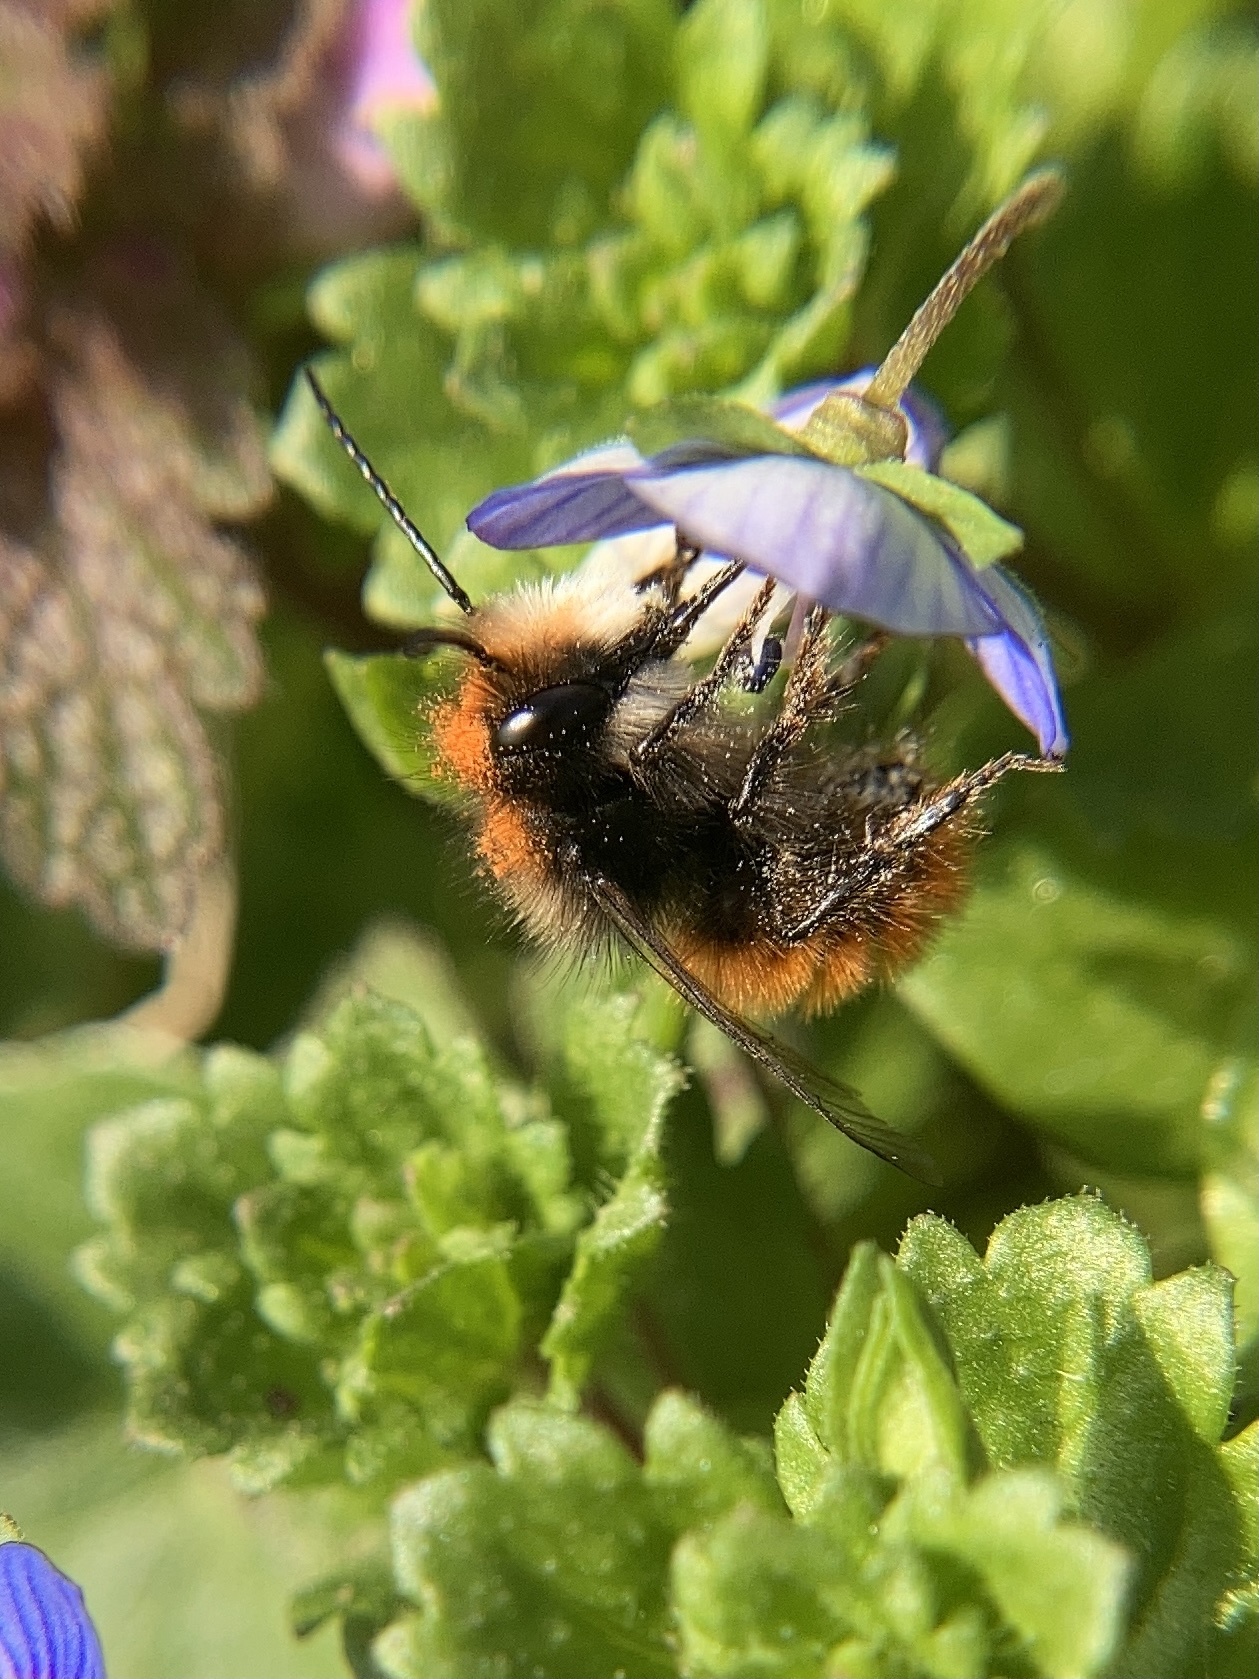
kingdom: Animalia
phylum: Arthropoda
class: Insecta
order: Hymenoptera
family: Megachilidae
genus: Osmia
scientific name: Osmia cornuta
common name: Mason bee
